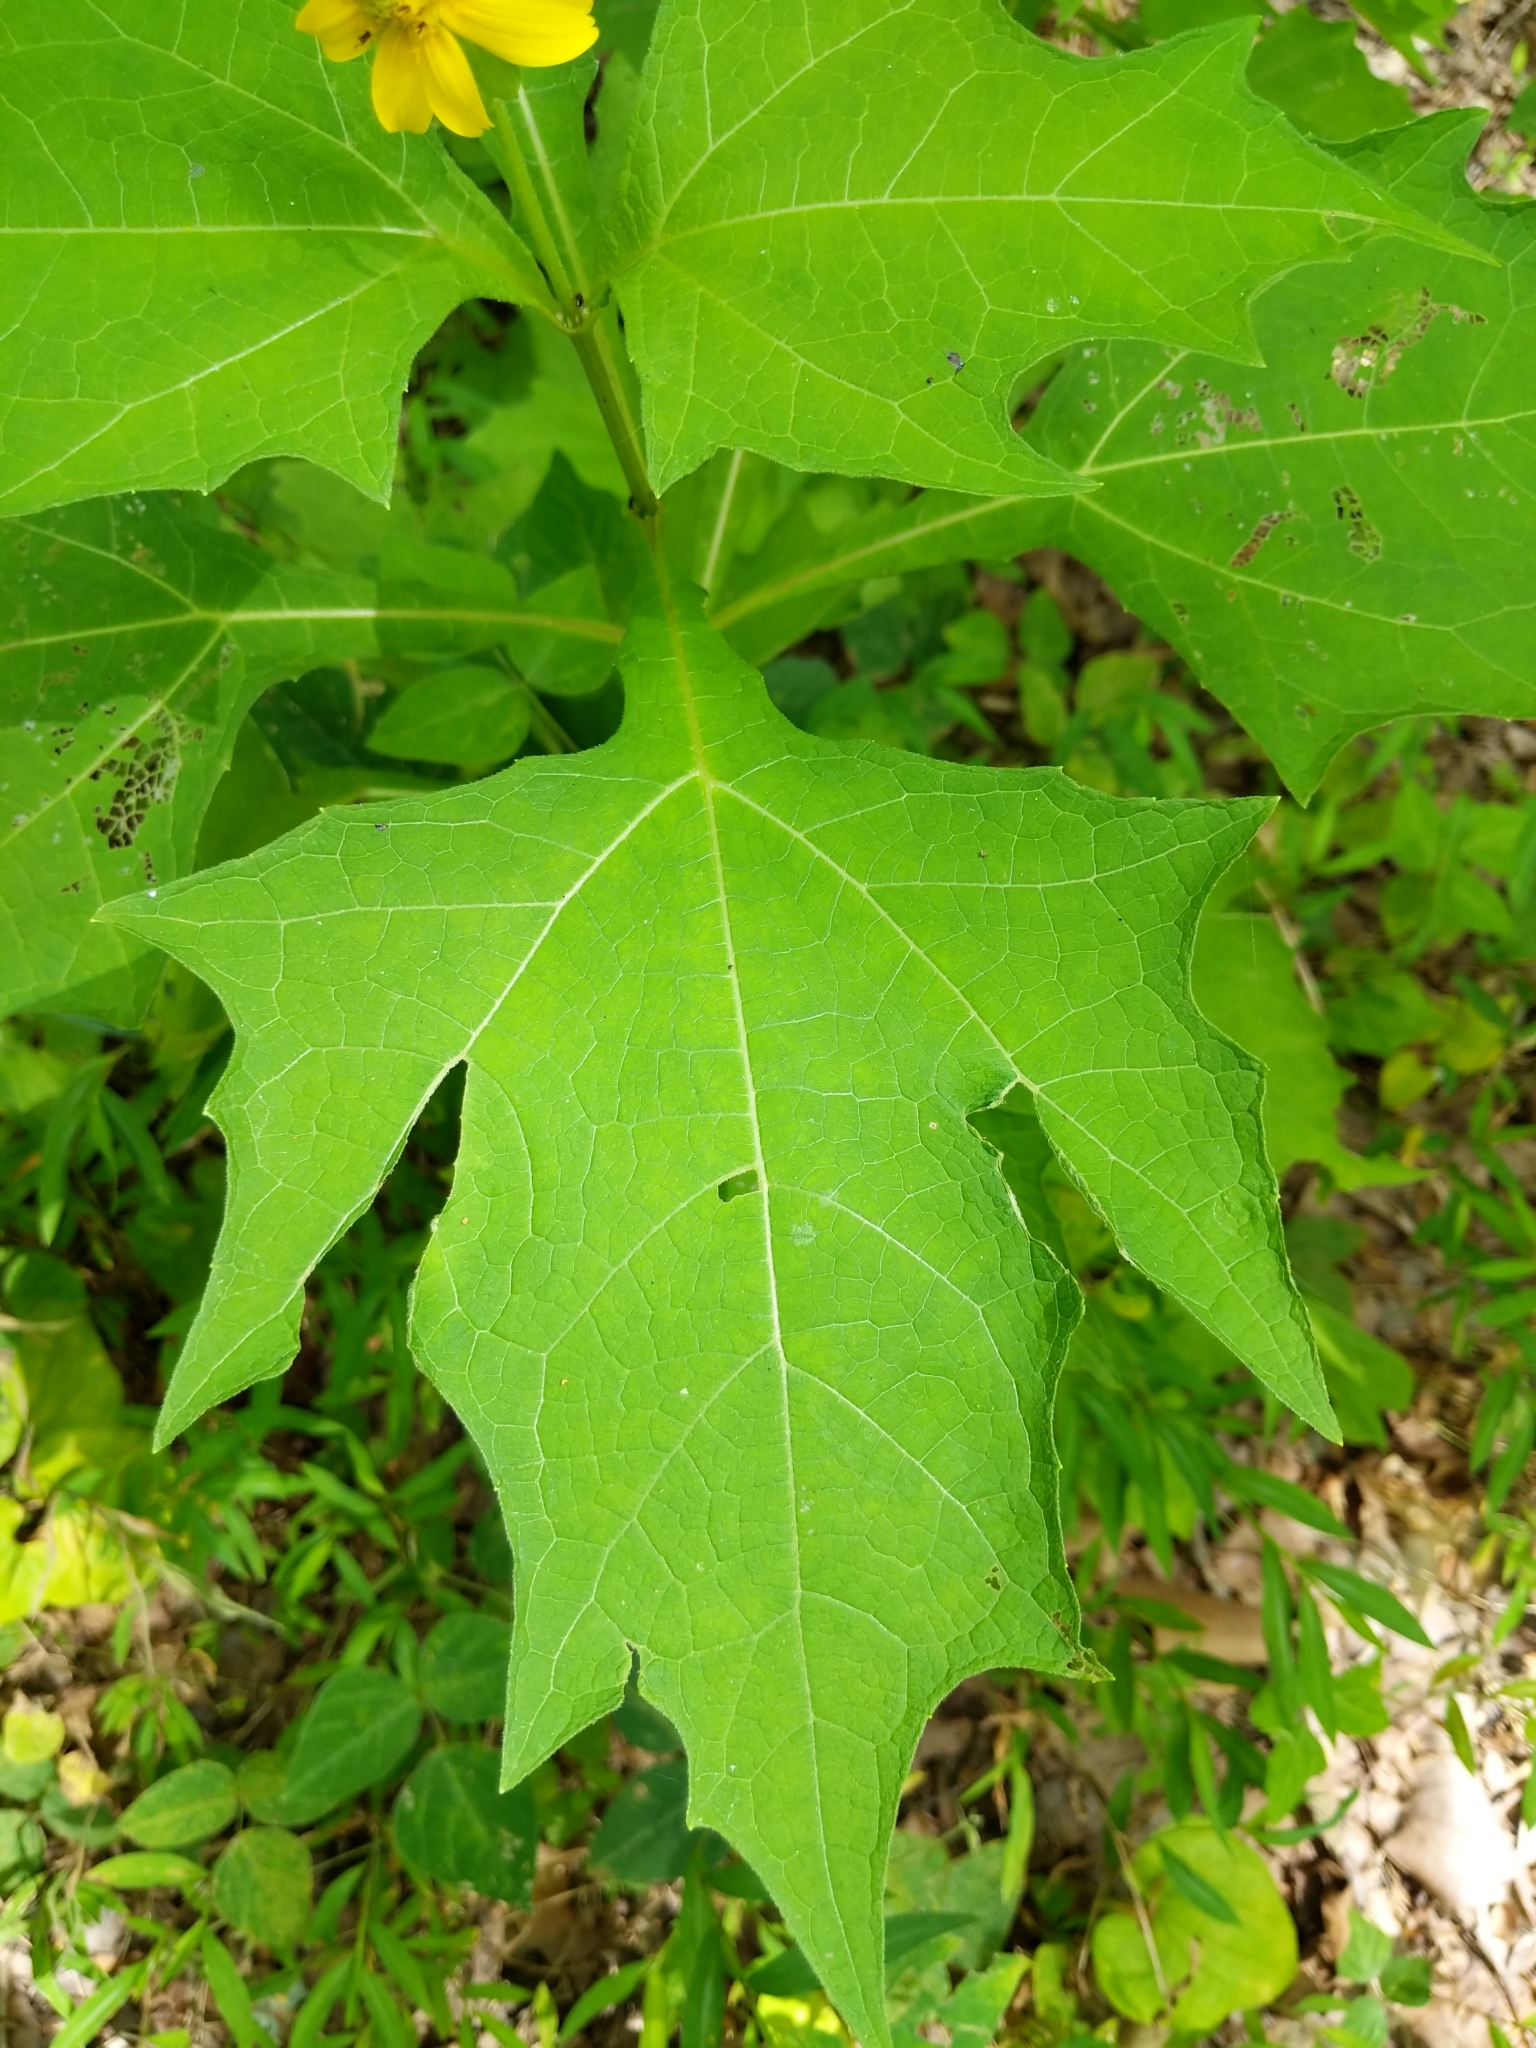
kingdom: Plantae
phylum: Tracheophyta
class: Magnoliopsida
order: Asterales
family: Asteraceae
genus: Smallanthus
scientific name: Smallanthus uvedalia
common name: Bear's-foot
